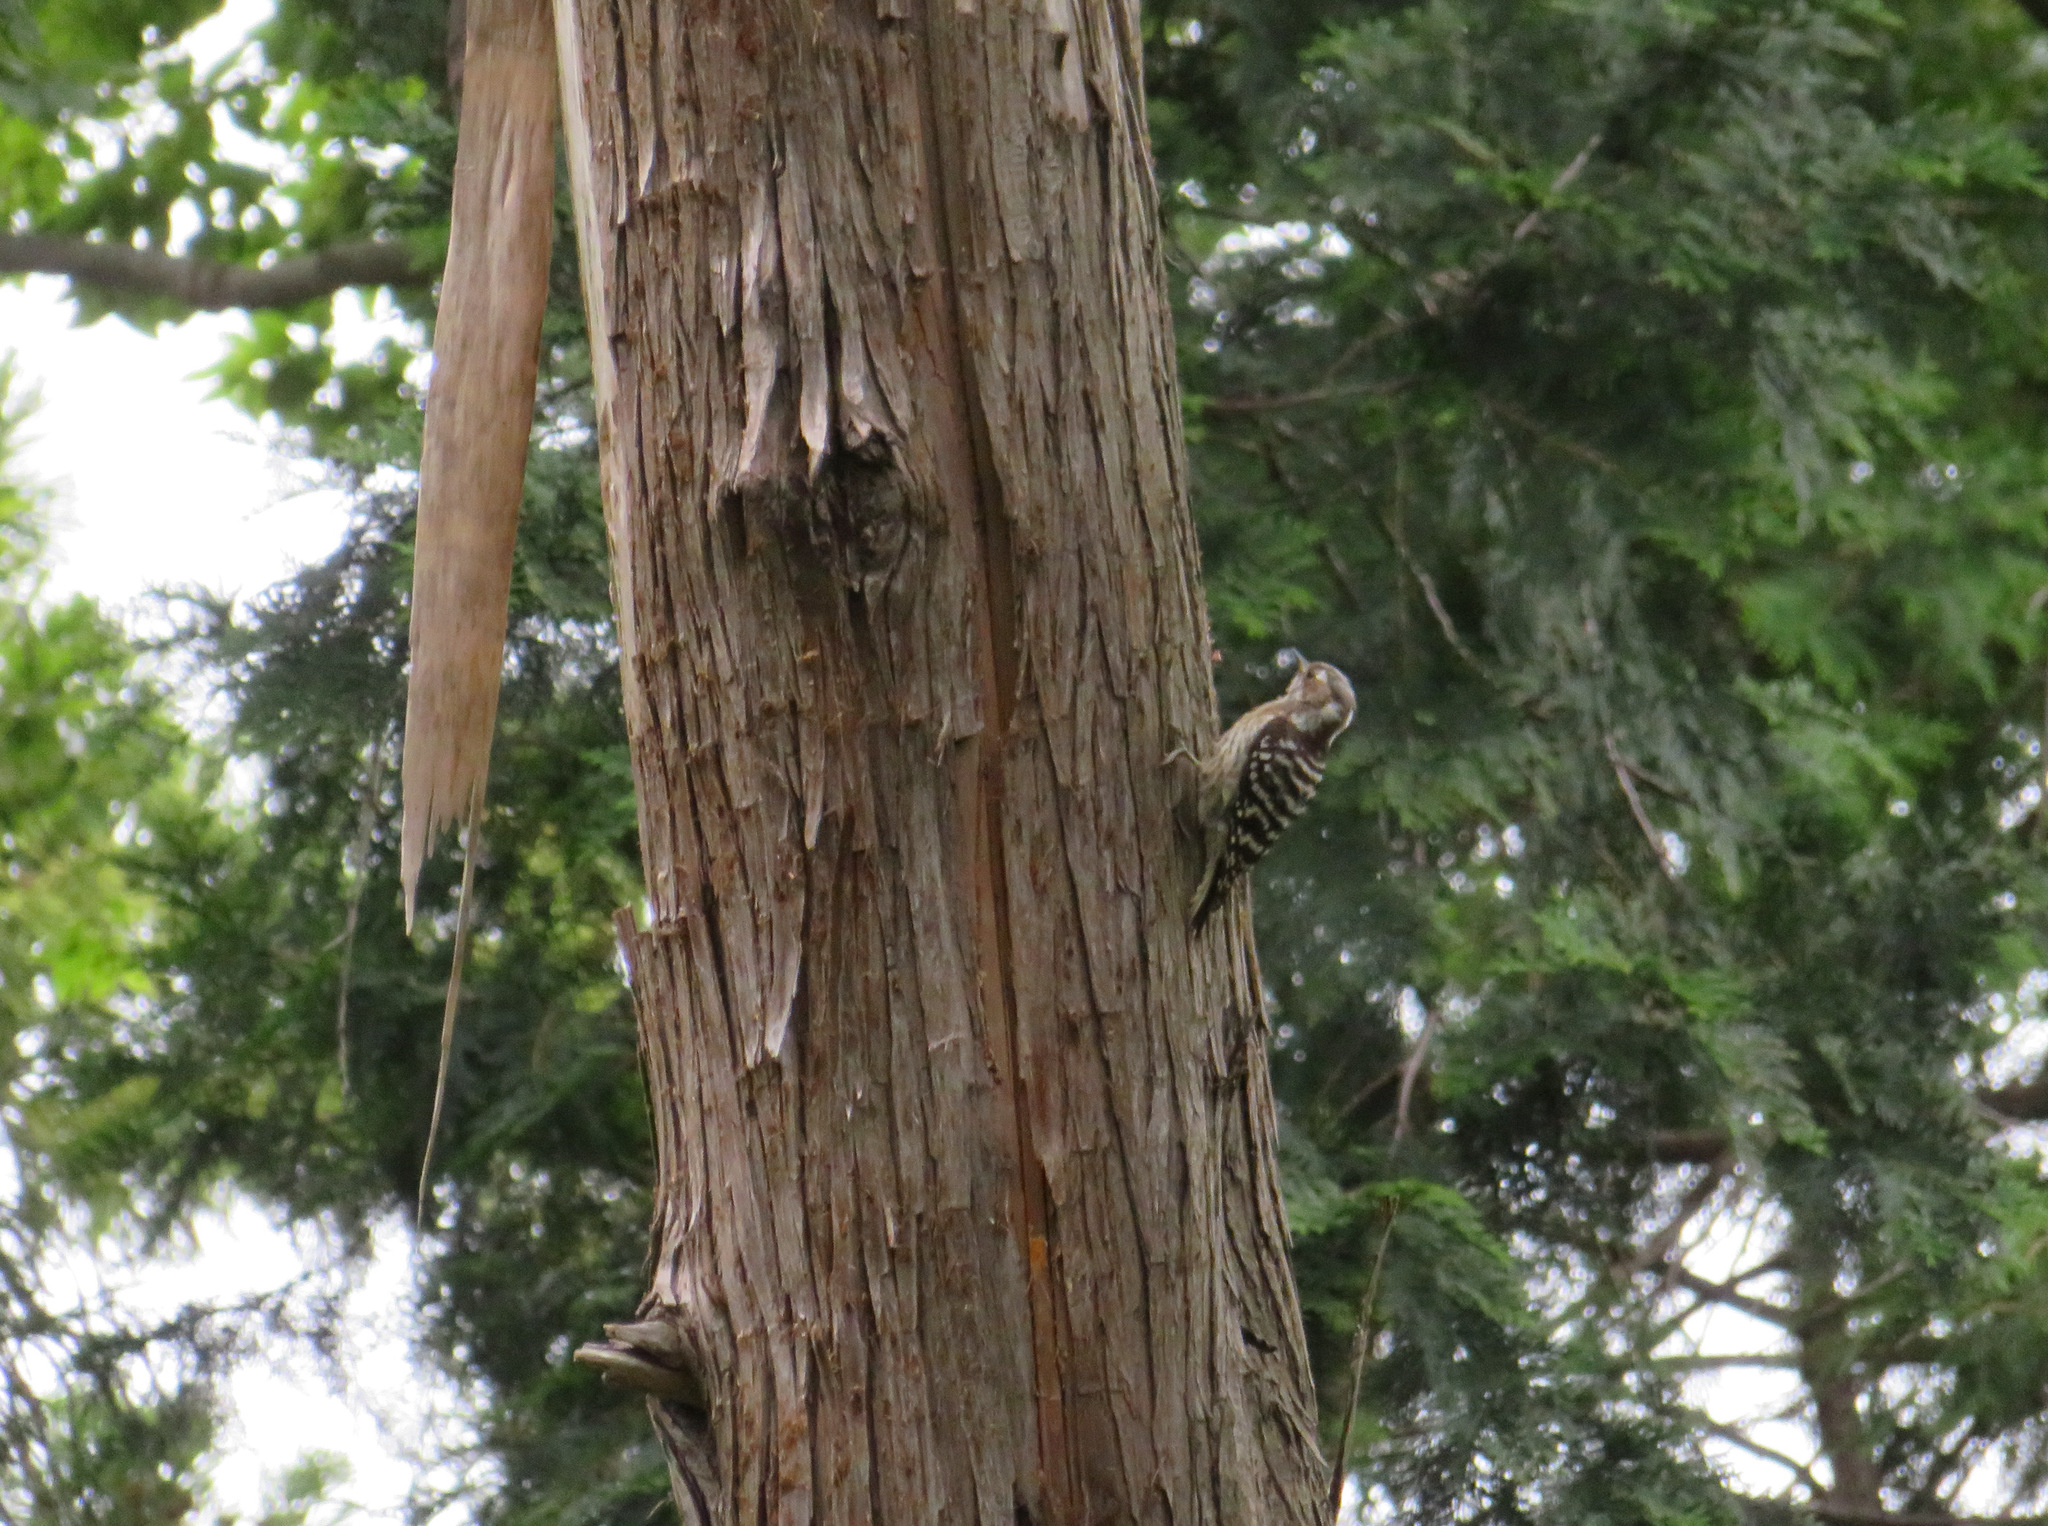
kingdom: Animalia
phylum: Chordata
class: Aves
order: Piciformes
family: Picidae
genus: Yungipicus
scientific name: Yungipicus kizuki
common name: Japanese pygmy woodpecker
